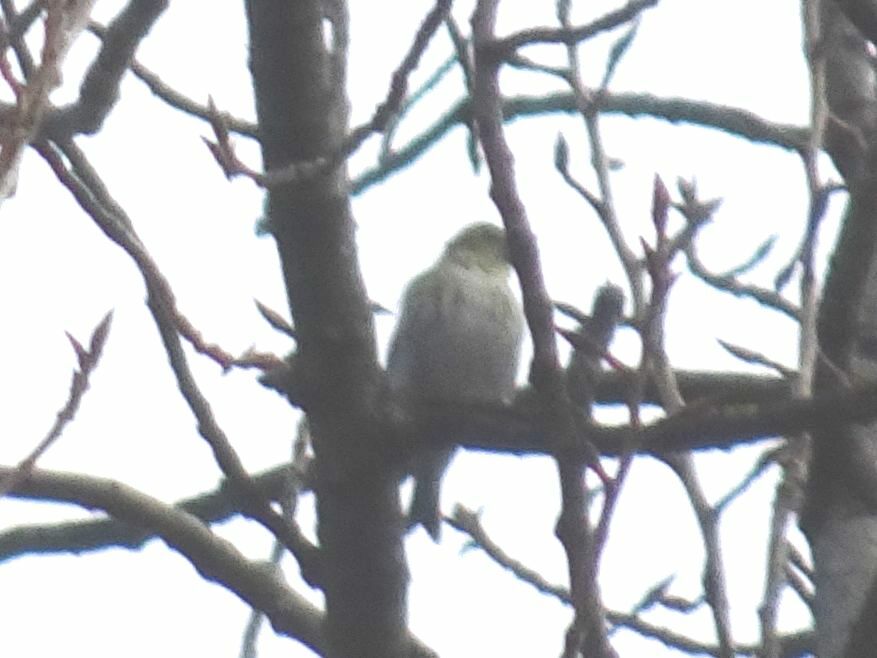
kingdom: Animalia
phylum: Chordata
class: Aves
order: Passeriformes
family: Fringillidae
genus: Spinus
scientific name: Spinus spinus
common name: Eurasian siskin
